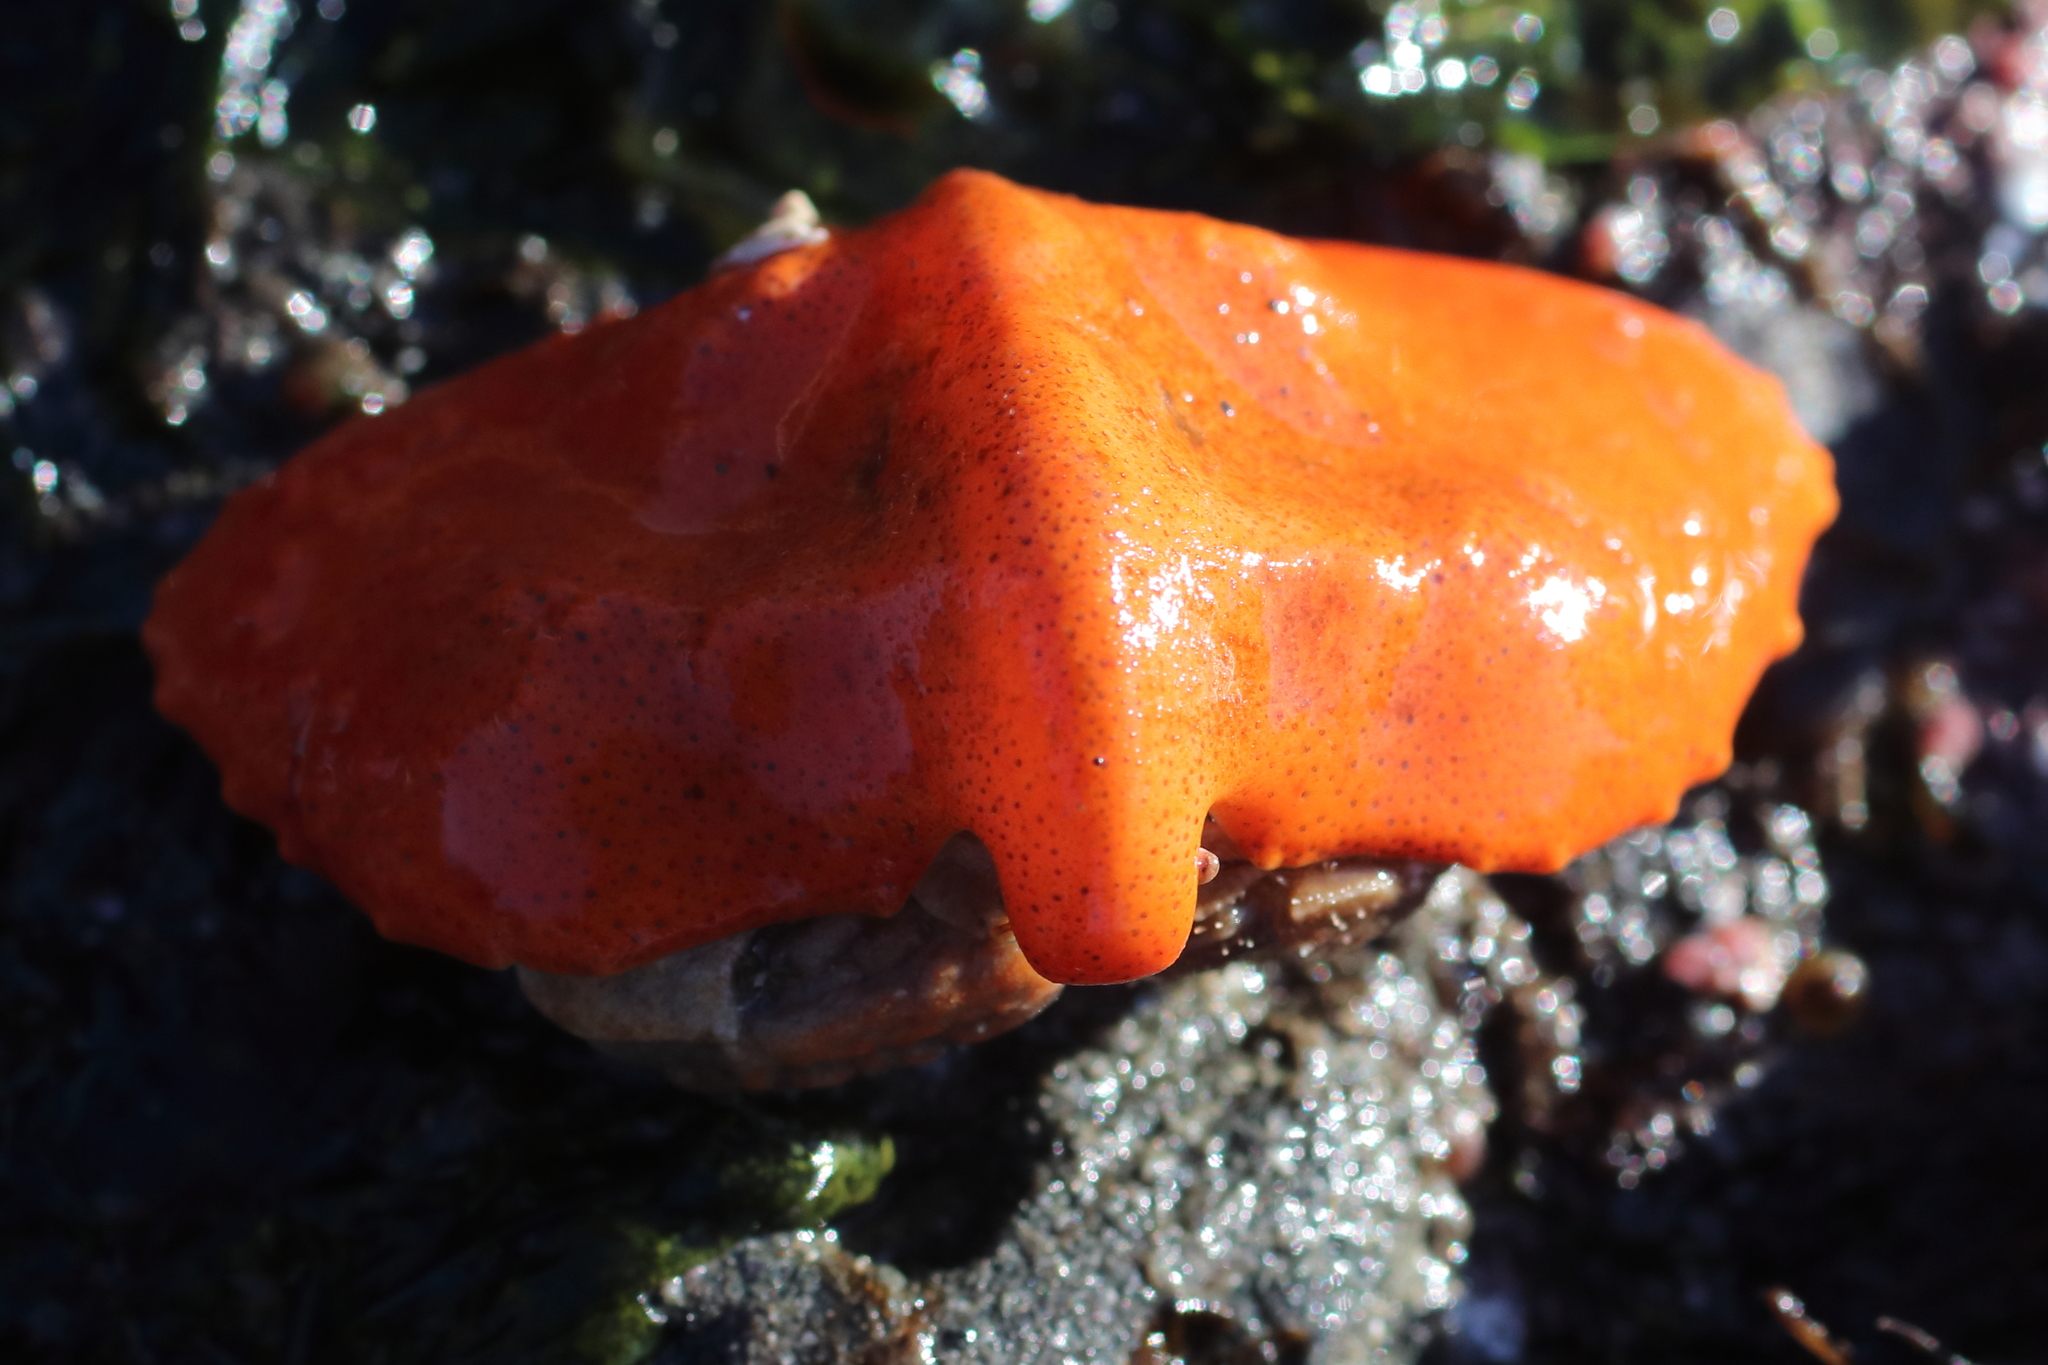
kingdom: Animalia
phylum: Arthropoda
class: Malacostraca
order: Decapoda
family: Lithodidae
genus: Cryptolithodes
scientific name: Cryptolithodes typicus
